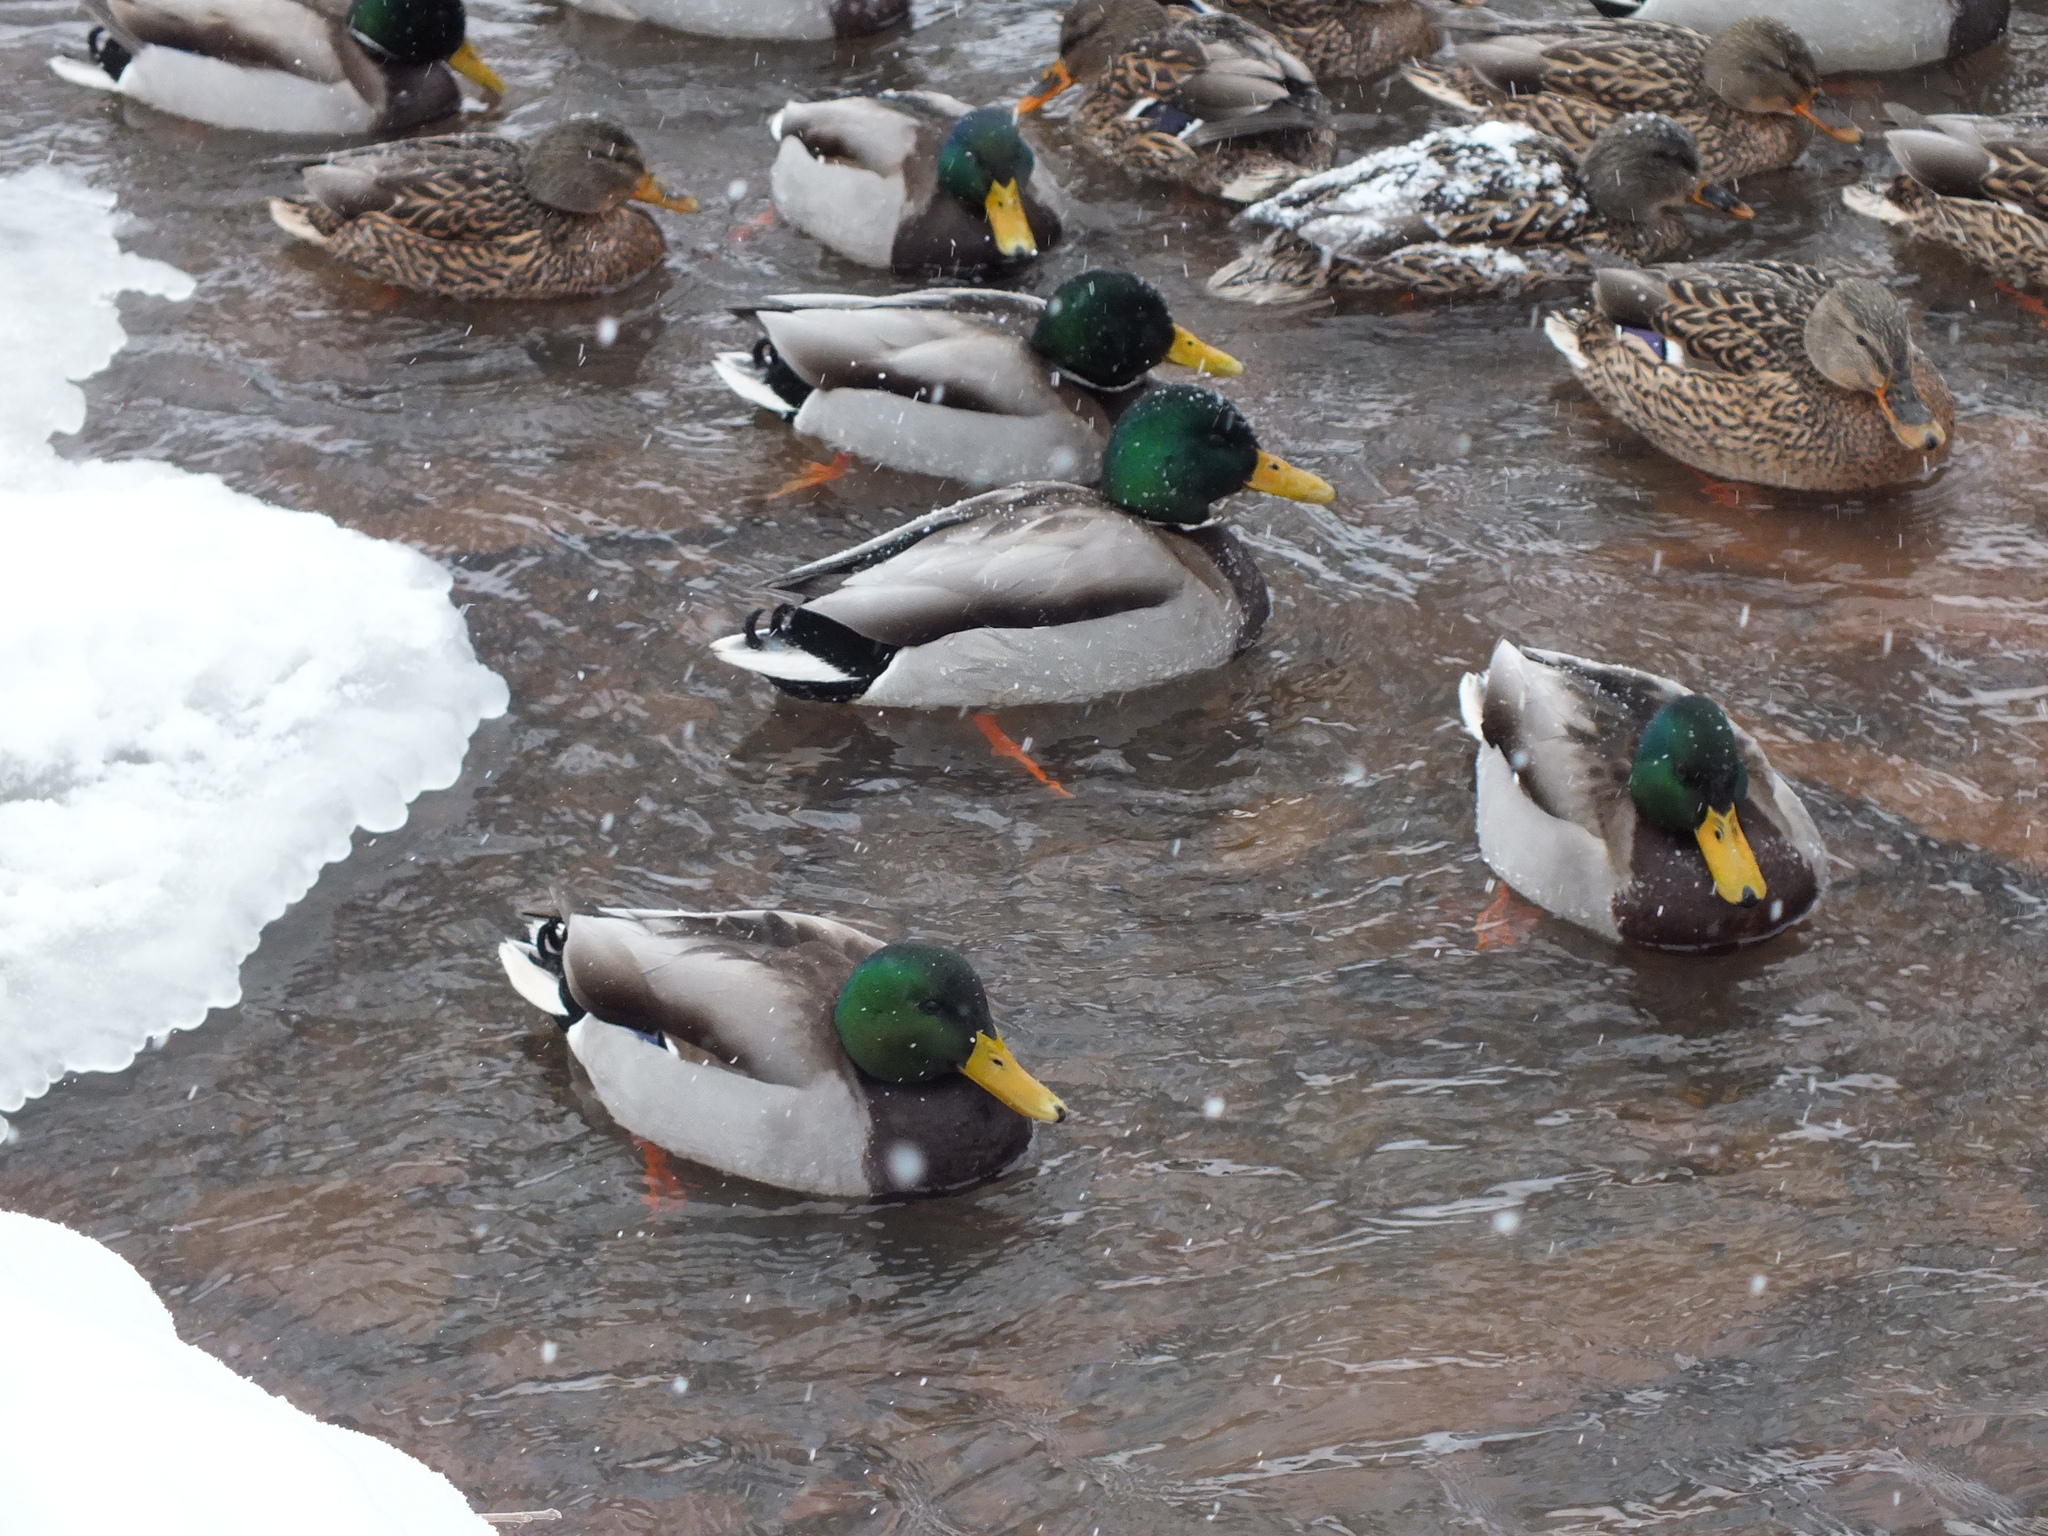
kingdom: Animalia
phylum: Chordata
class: Aves
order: Anseriformes
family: Anatidae
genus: Anas
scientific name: Anas platyrhynchos
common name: Mallard
